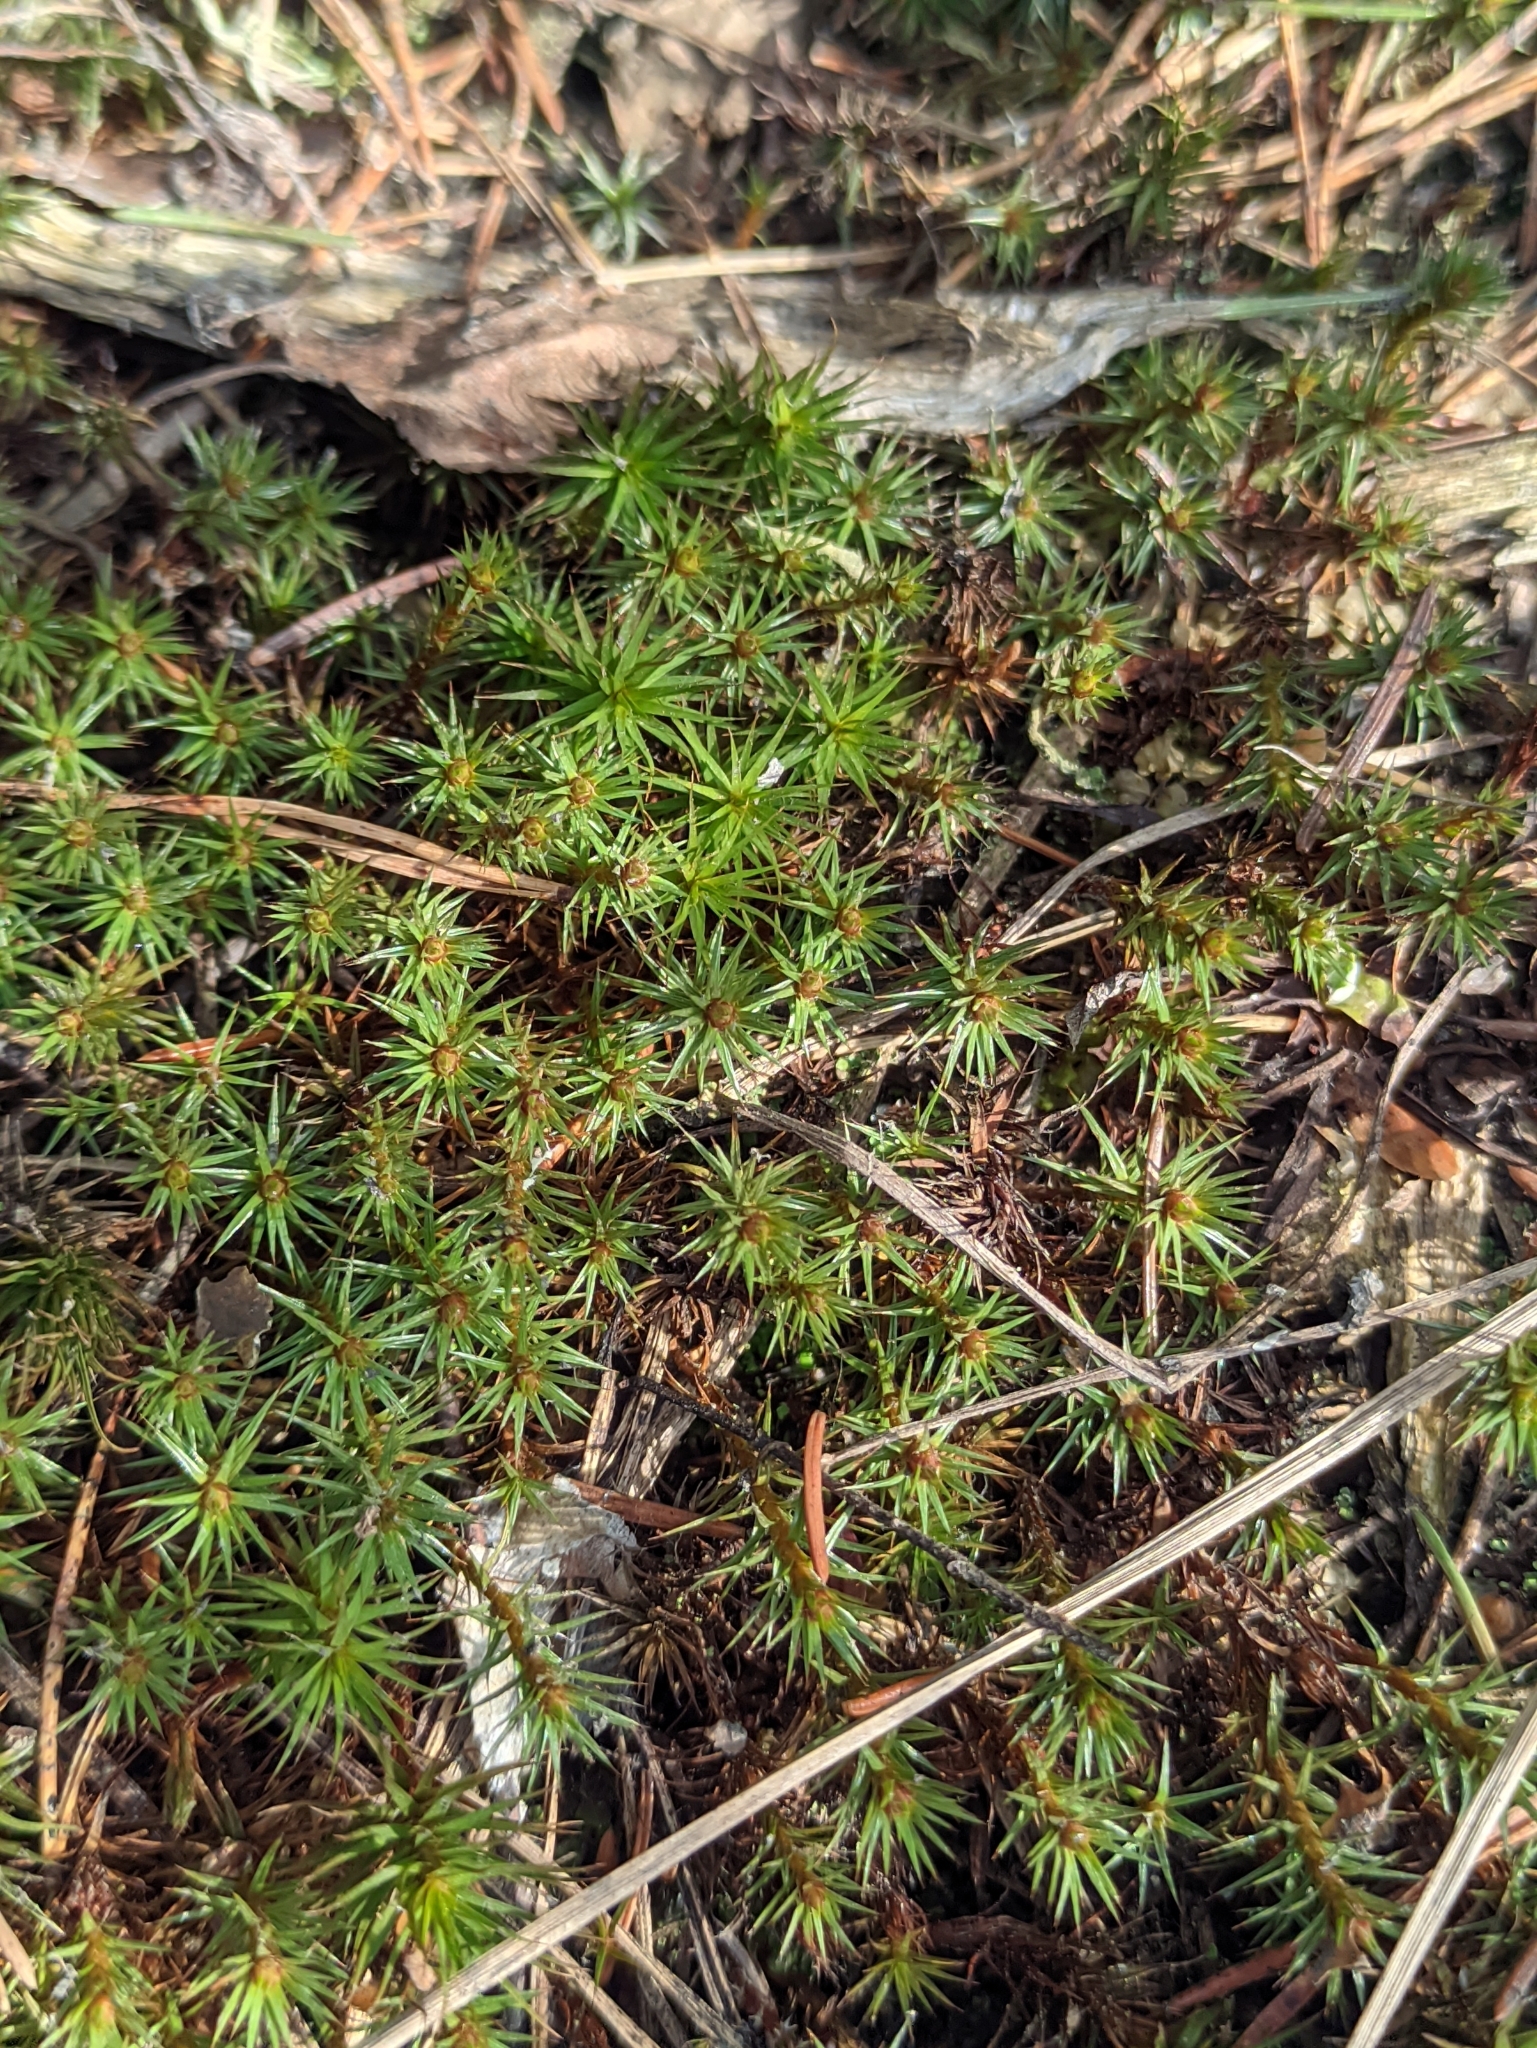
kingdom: Plantae
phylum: Bryophyta
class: Polytrichopsida
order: Polytrichales
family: Polytrichaceae
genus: Polytrichum
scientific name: Polytrichum juniperinum
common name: Juniper haircap moss
